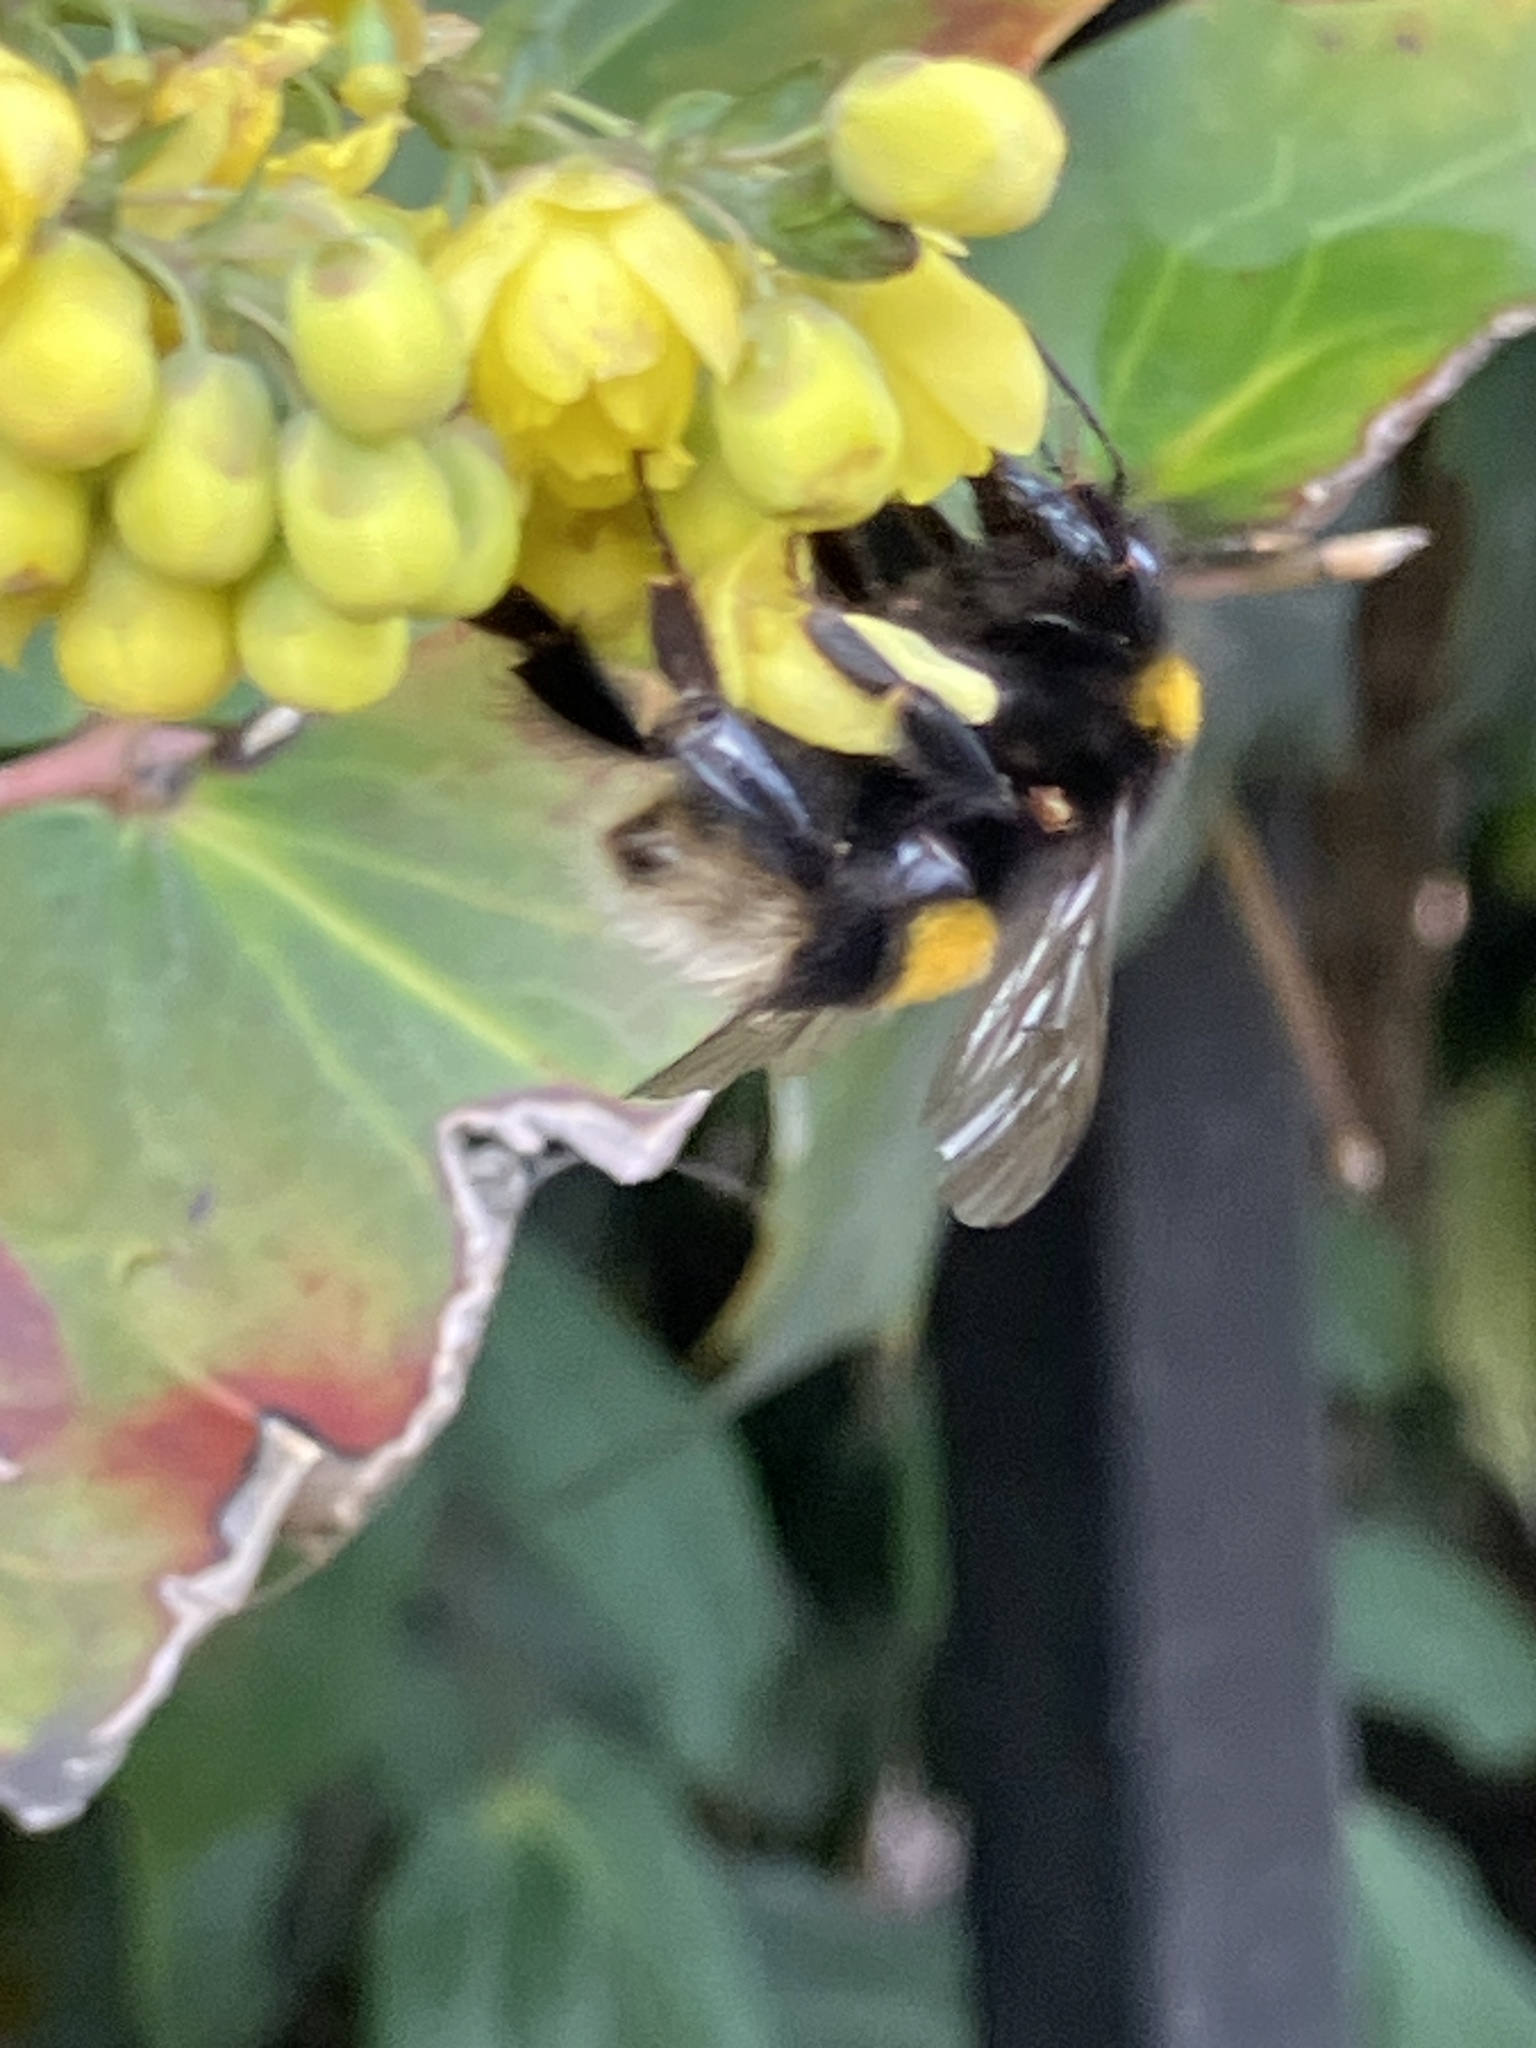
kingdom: Animalia
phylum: Arthropoda
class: Insecta
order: Hymenoptera
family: Apidae
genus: Bombus
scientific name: Bombus terrestris
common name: Buff-tailed bumblebee
